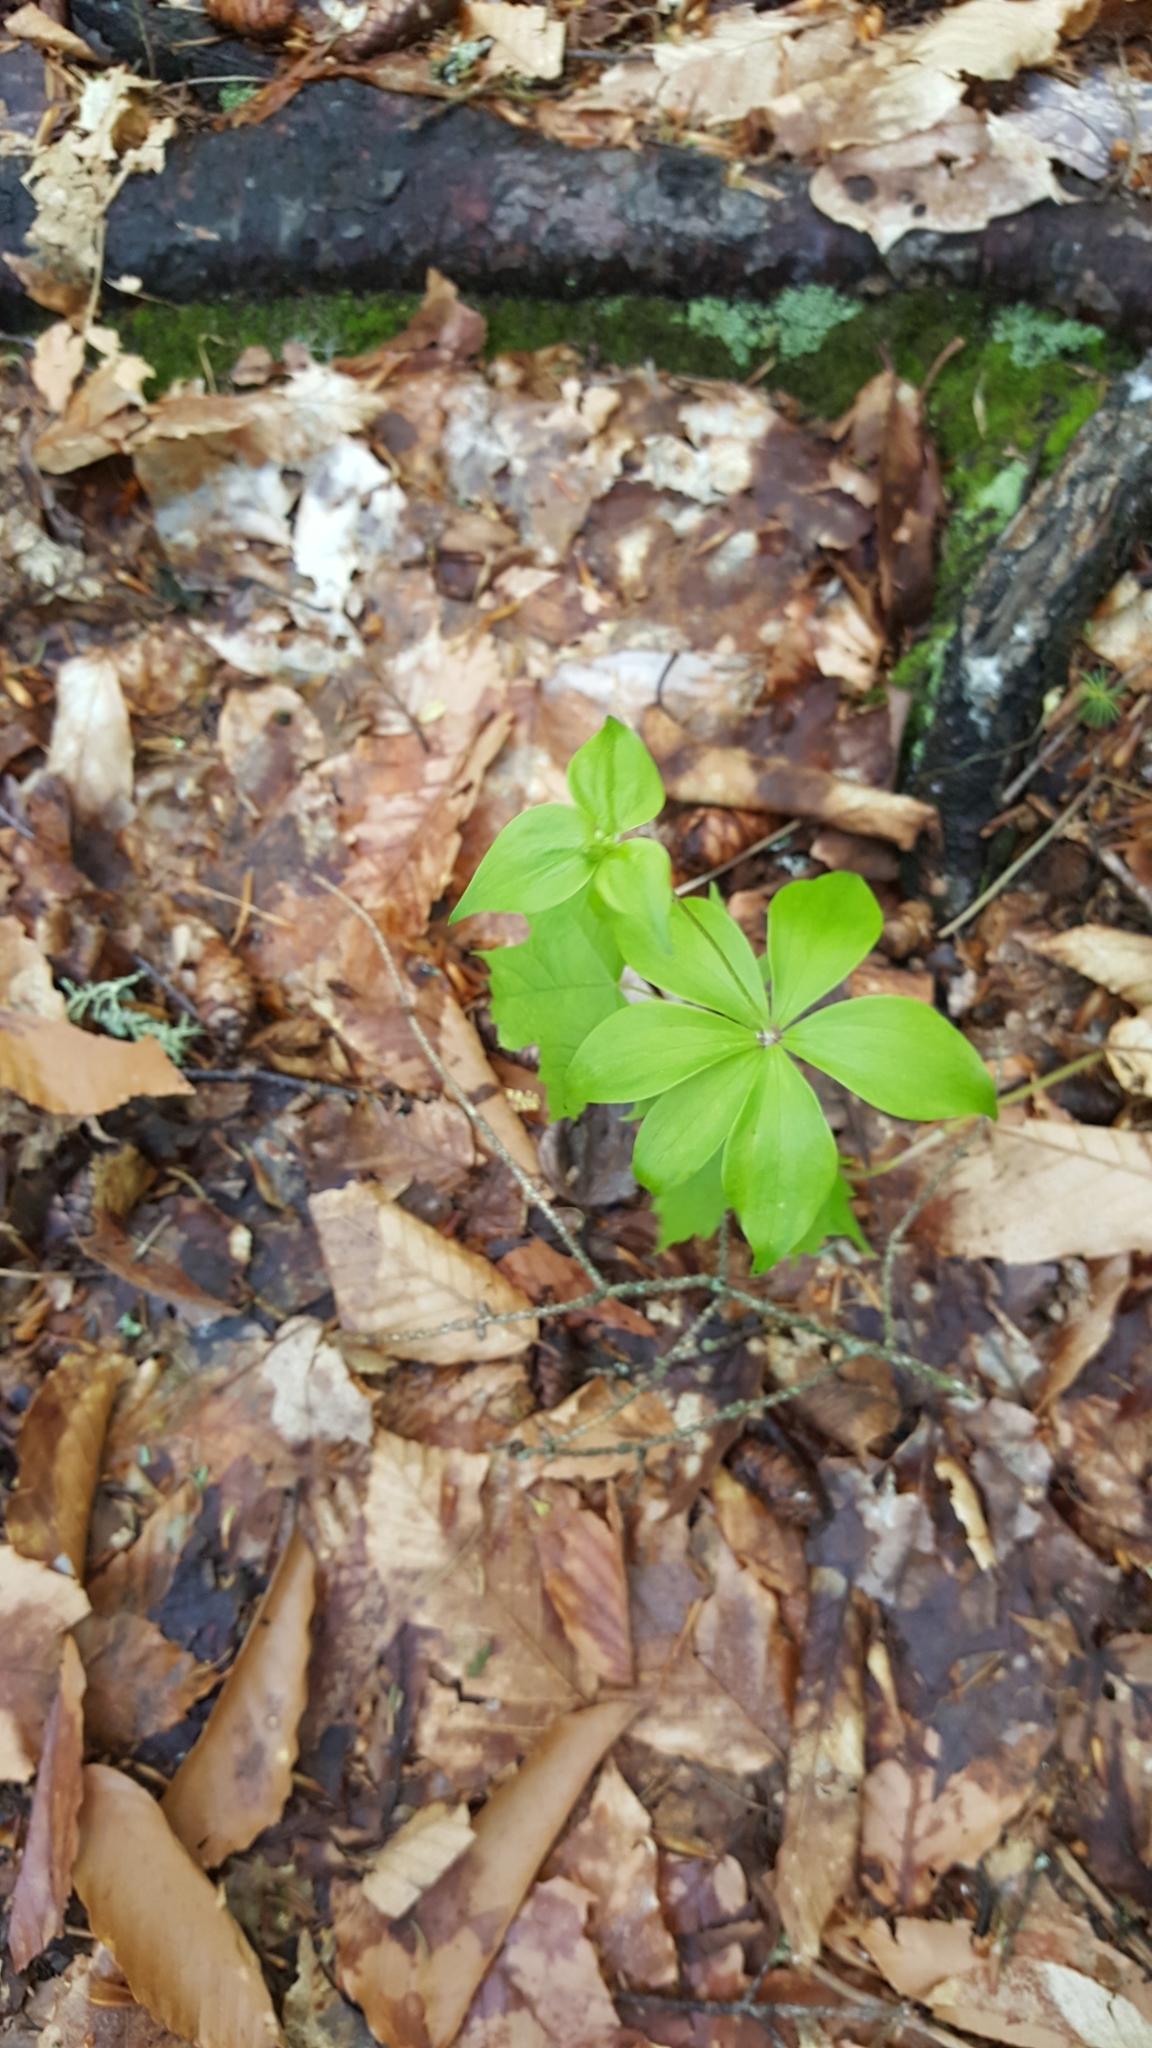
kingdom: Plantae
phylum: Tracheophyta
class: Liliopsida
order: Liliales
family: Liliaceae
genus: Medeola
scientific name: Medeola virginiana
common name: Indian cucumber-root
